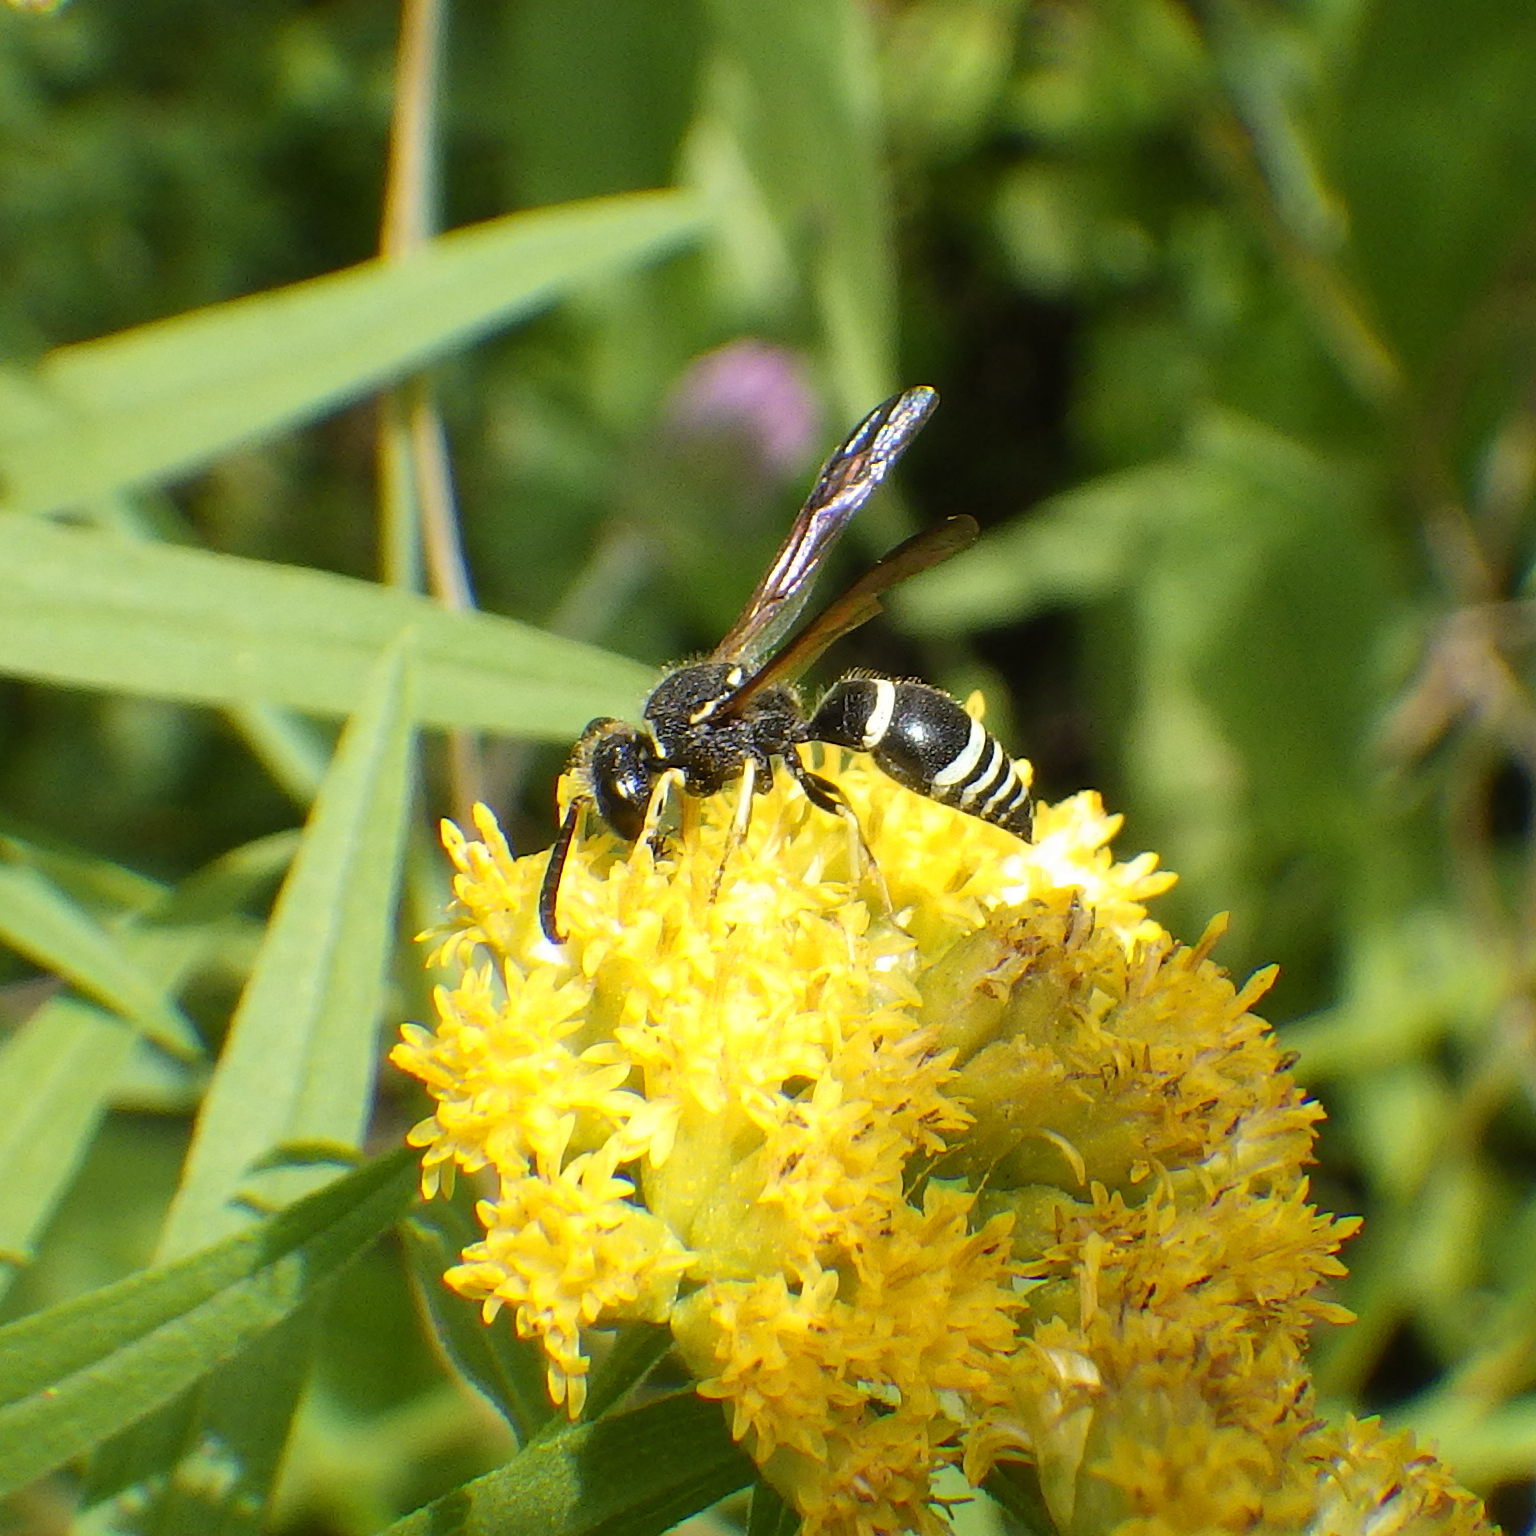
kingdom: Animalia
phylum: Arthropoda
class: Insecta
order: Hymenoptera
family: Vespidae
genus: Ancistrocerus
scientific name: Ancistrocerus
